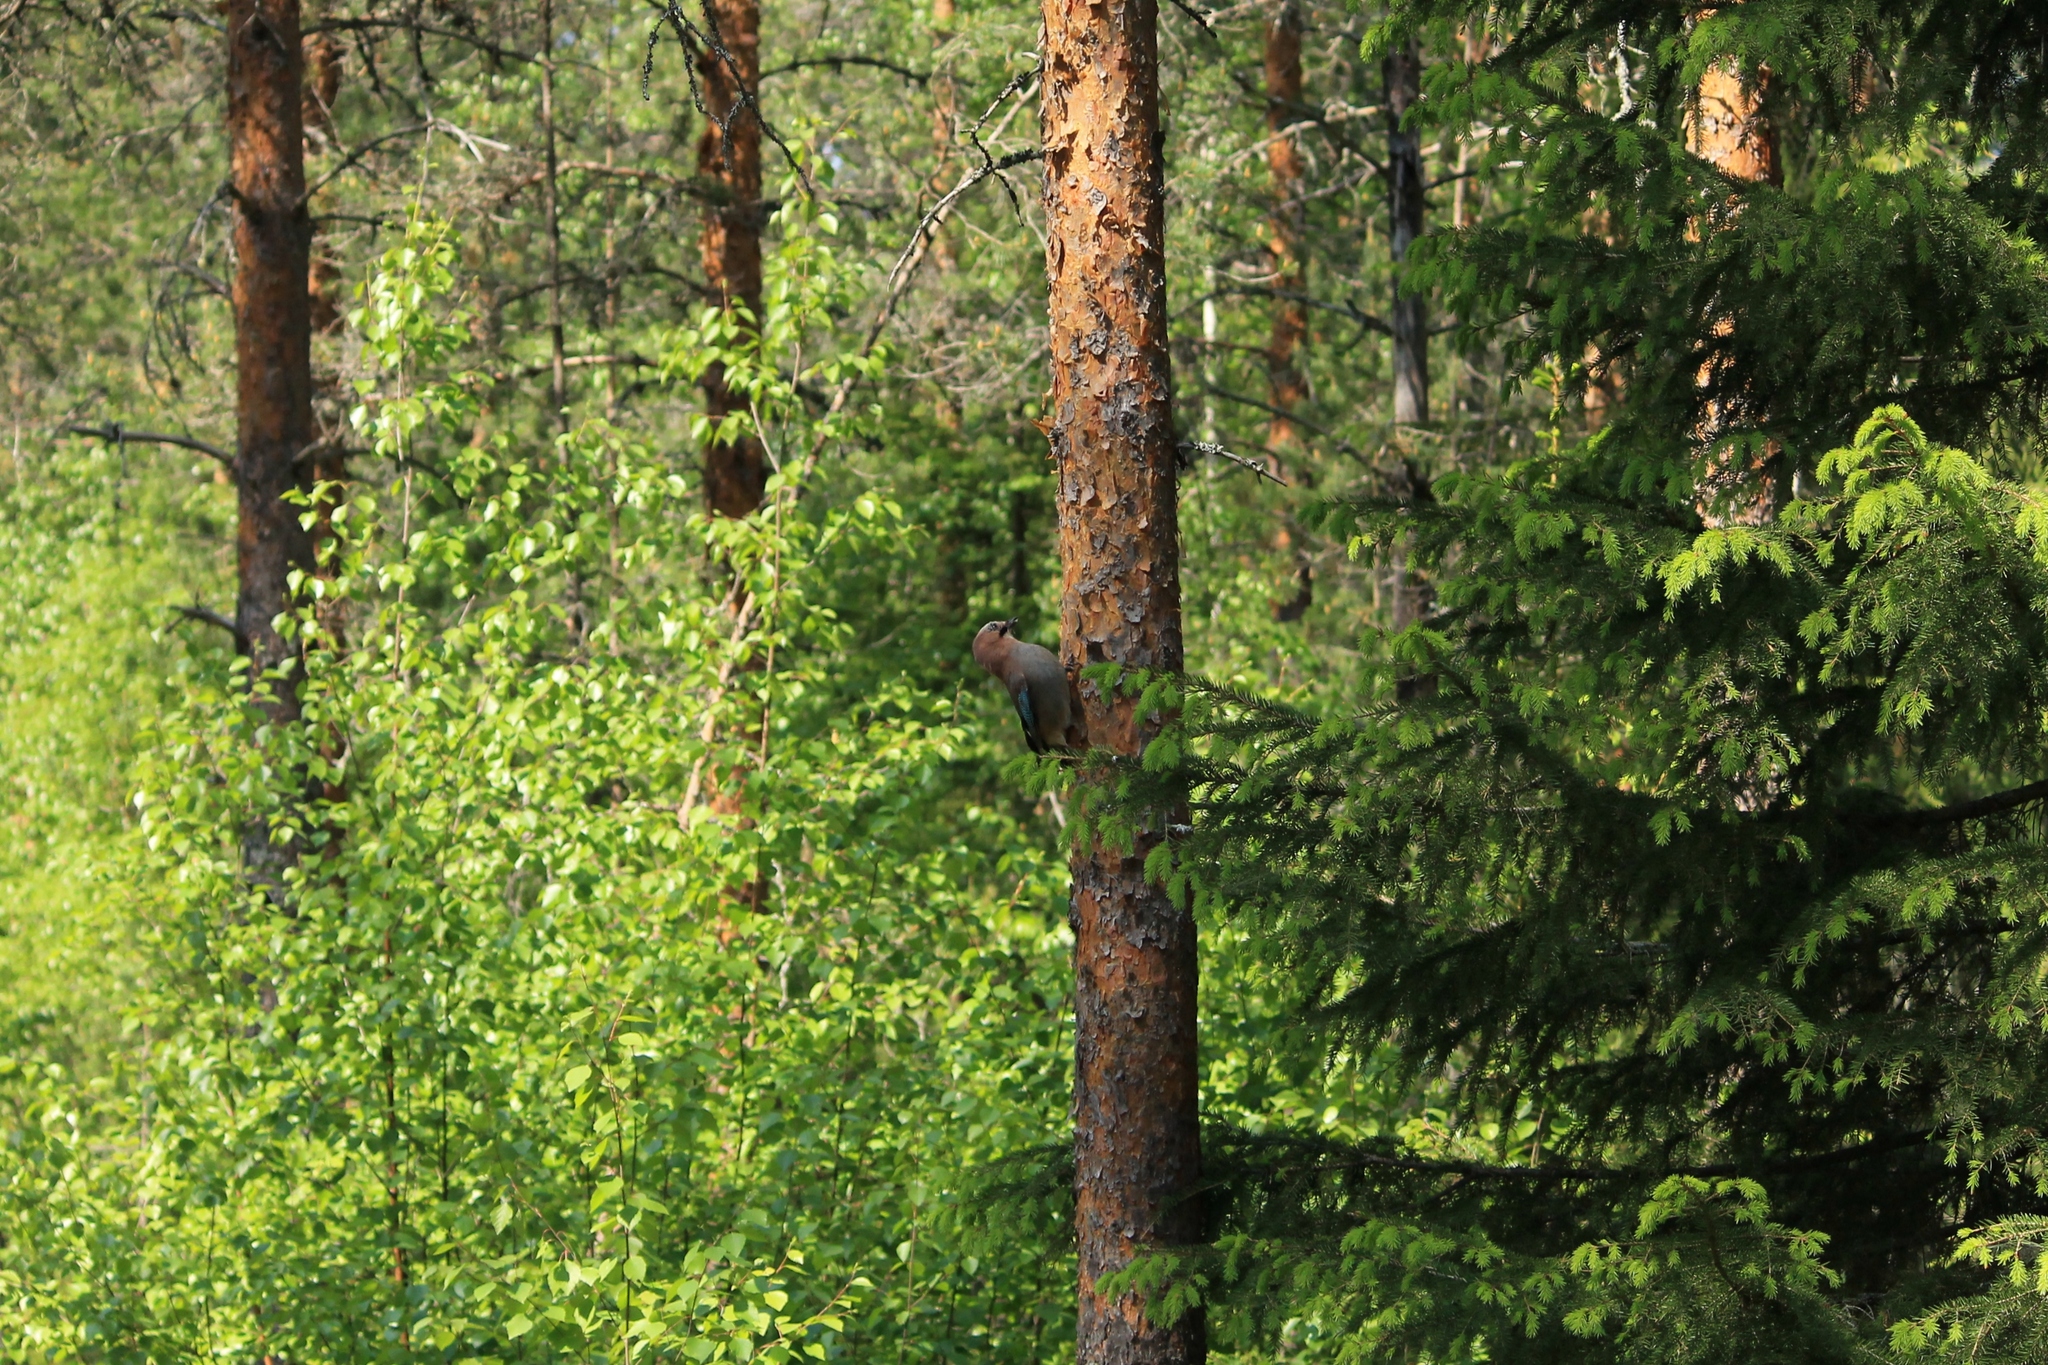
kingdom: Animalia
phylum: Chordata
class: Aves
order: Passeriformes
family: Corvidae
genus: Garrulus
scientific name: Garrulus glandarius
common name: Eurasian jay
